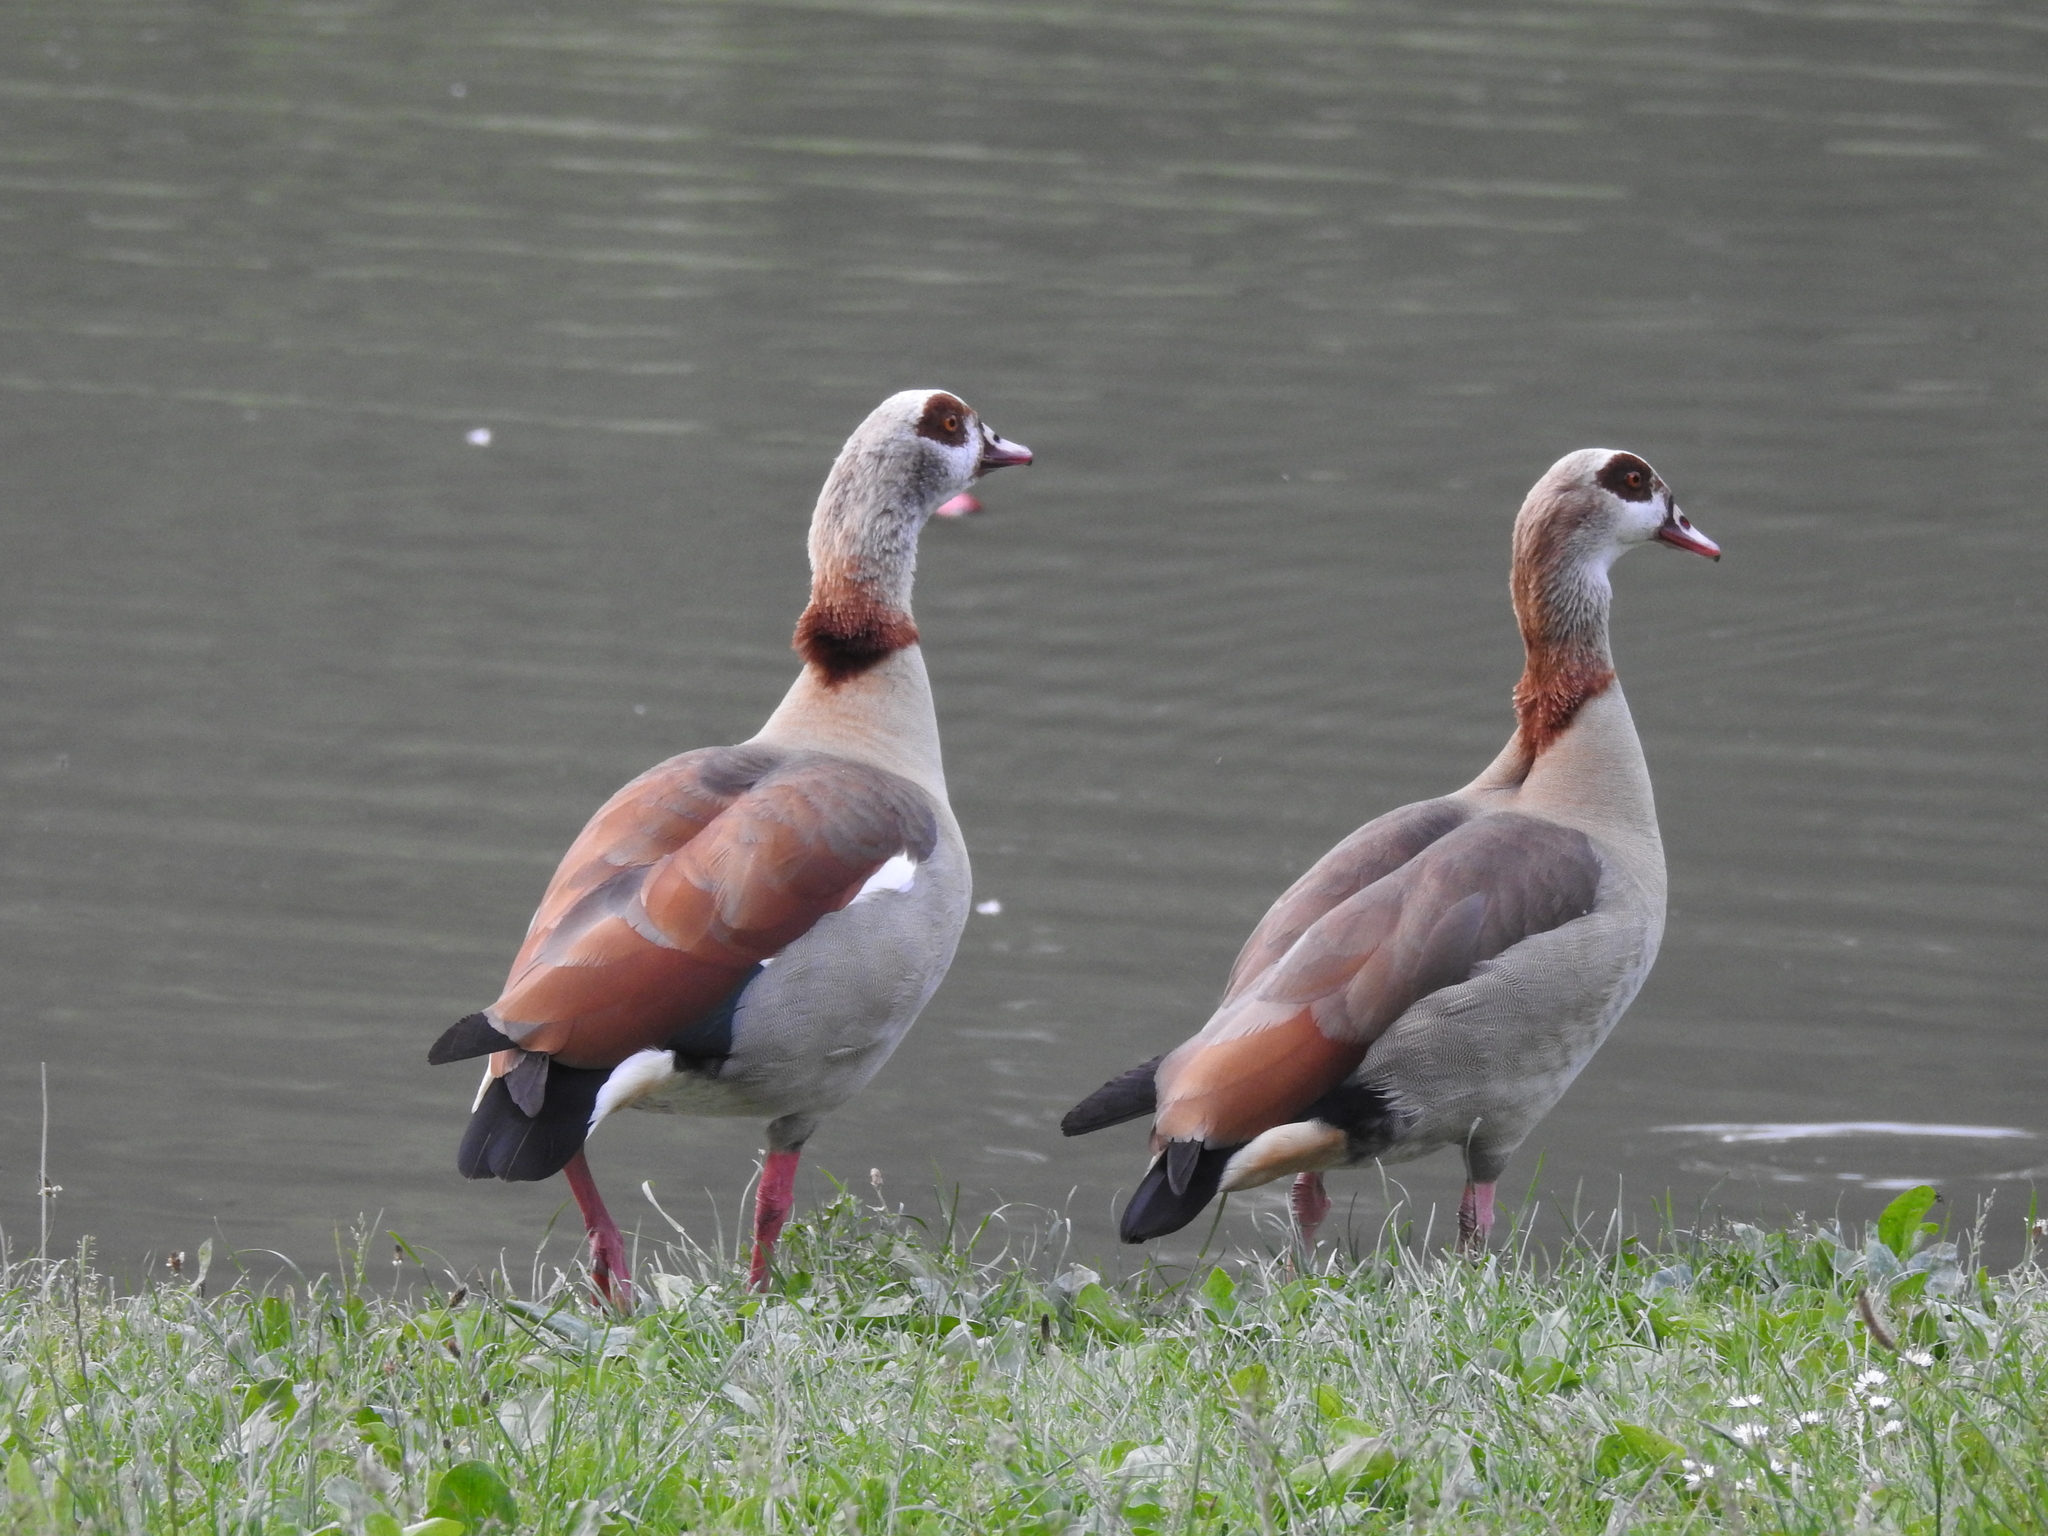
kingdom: Animalia
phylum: Chordata
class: Aves
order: Anseriformes
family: Anatidae
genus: Alopochen
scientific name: Alopochen aegyptiaca
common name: Egyptian goose
